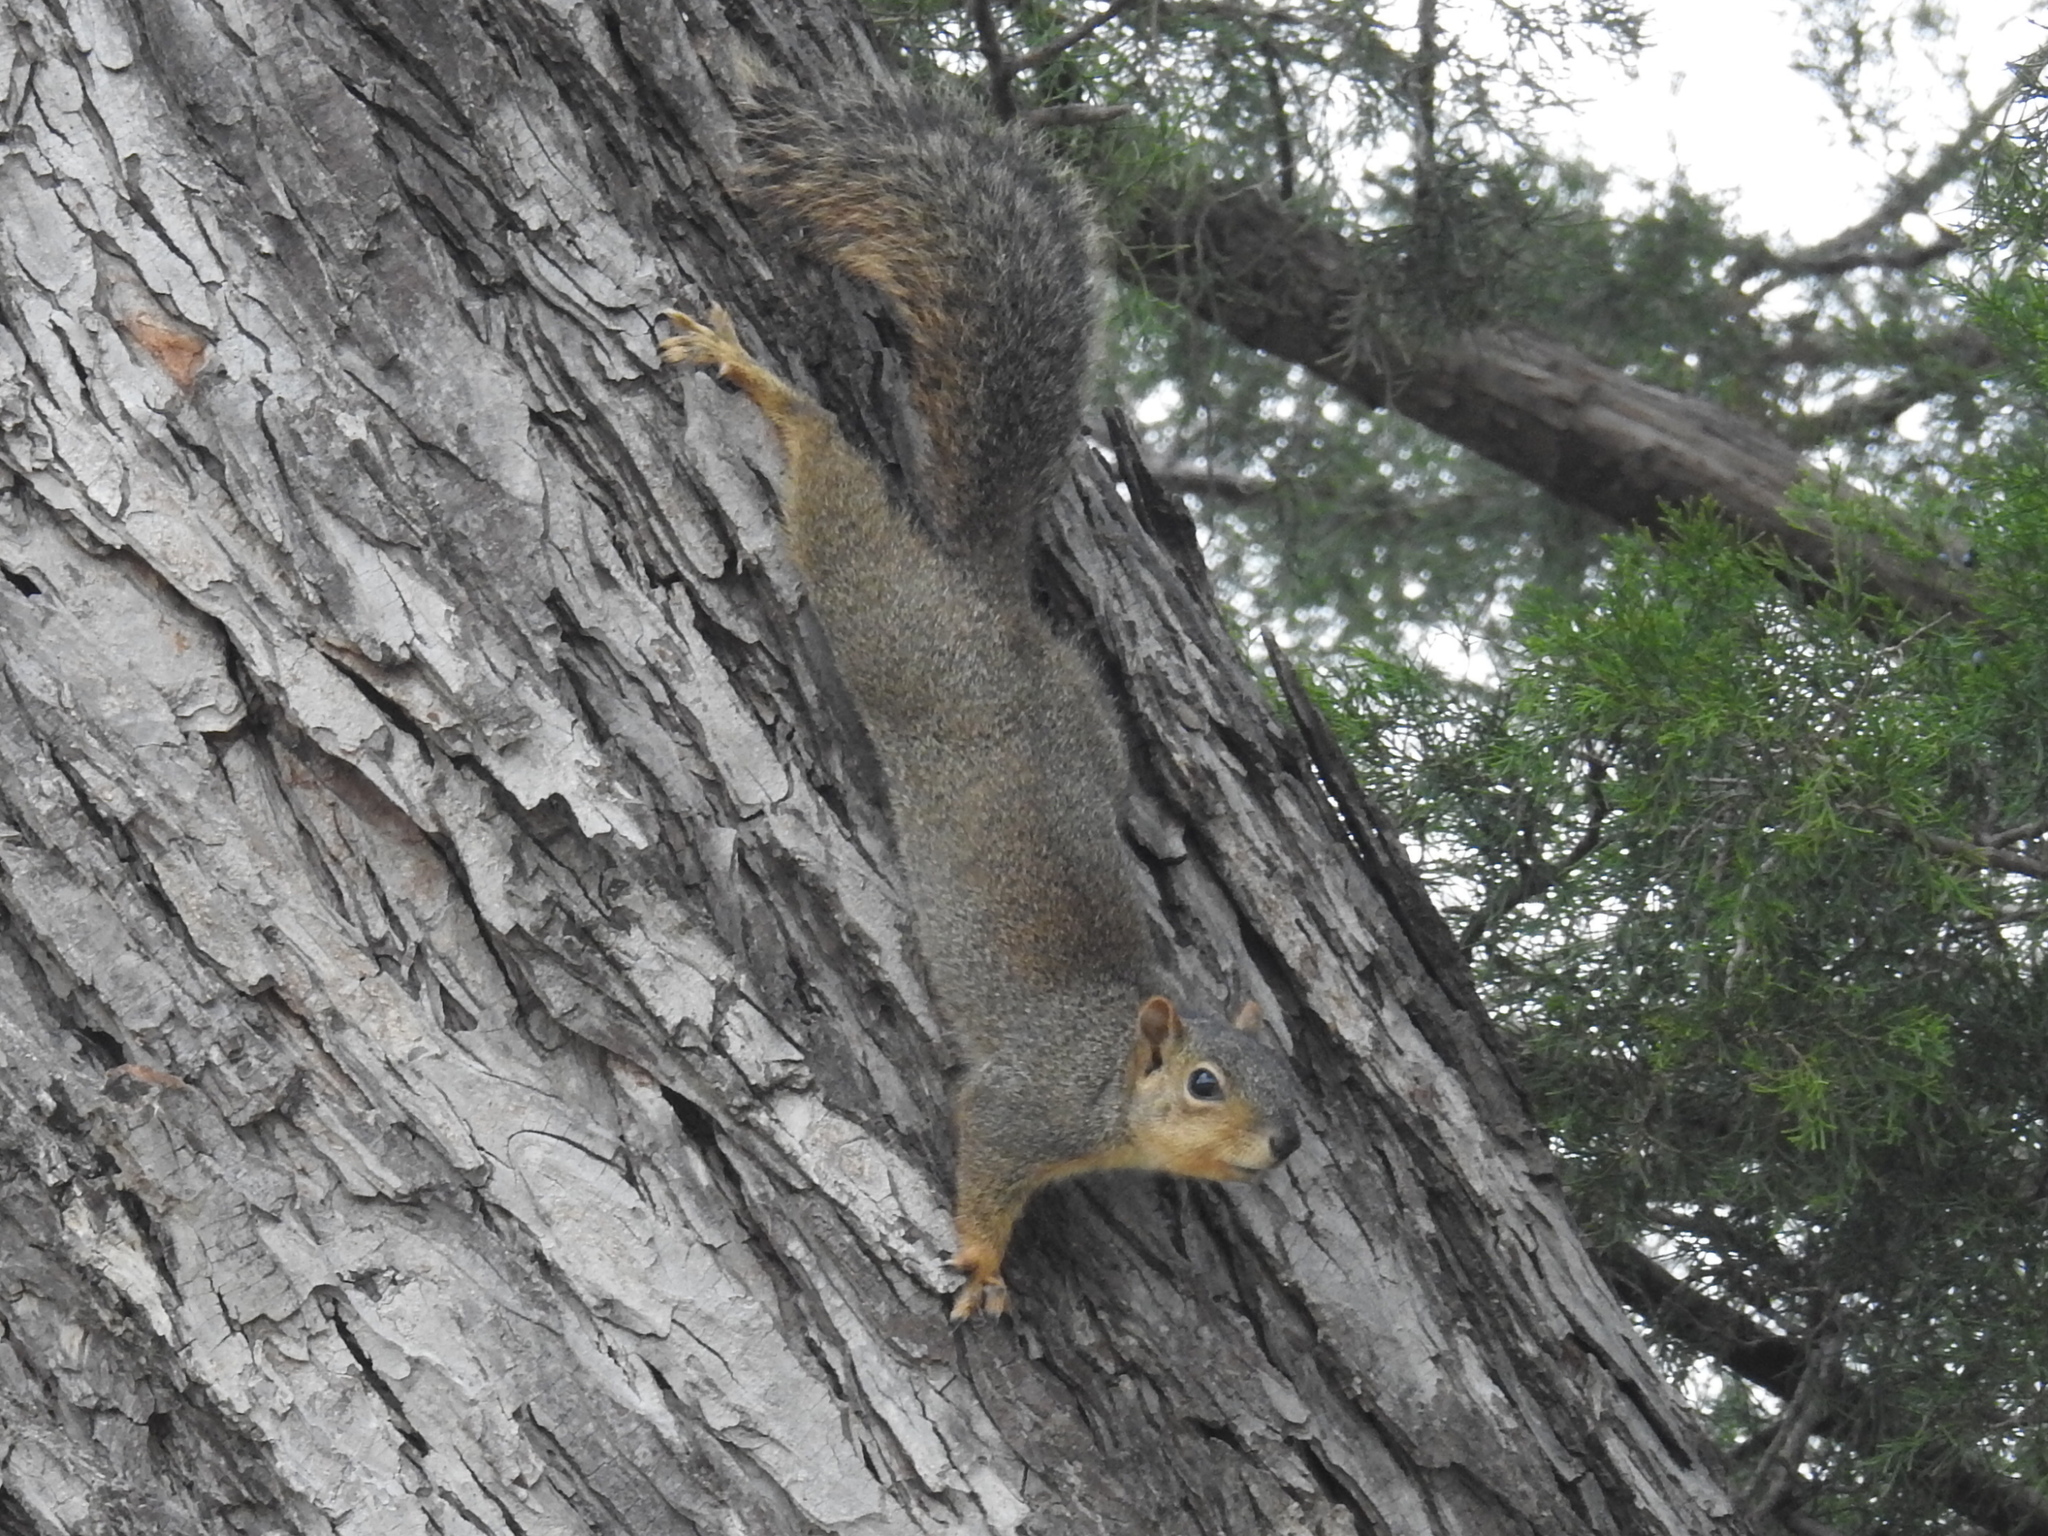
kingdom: Animalia
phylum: Chordata
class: Mammalia
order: Rodentia
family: Sciuridae
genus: Sciurus
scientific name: Sciurus niger
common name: Fox squirrel
